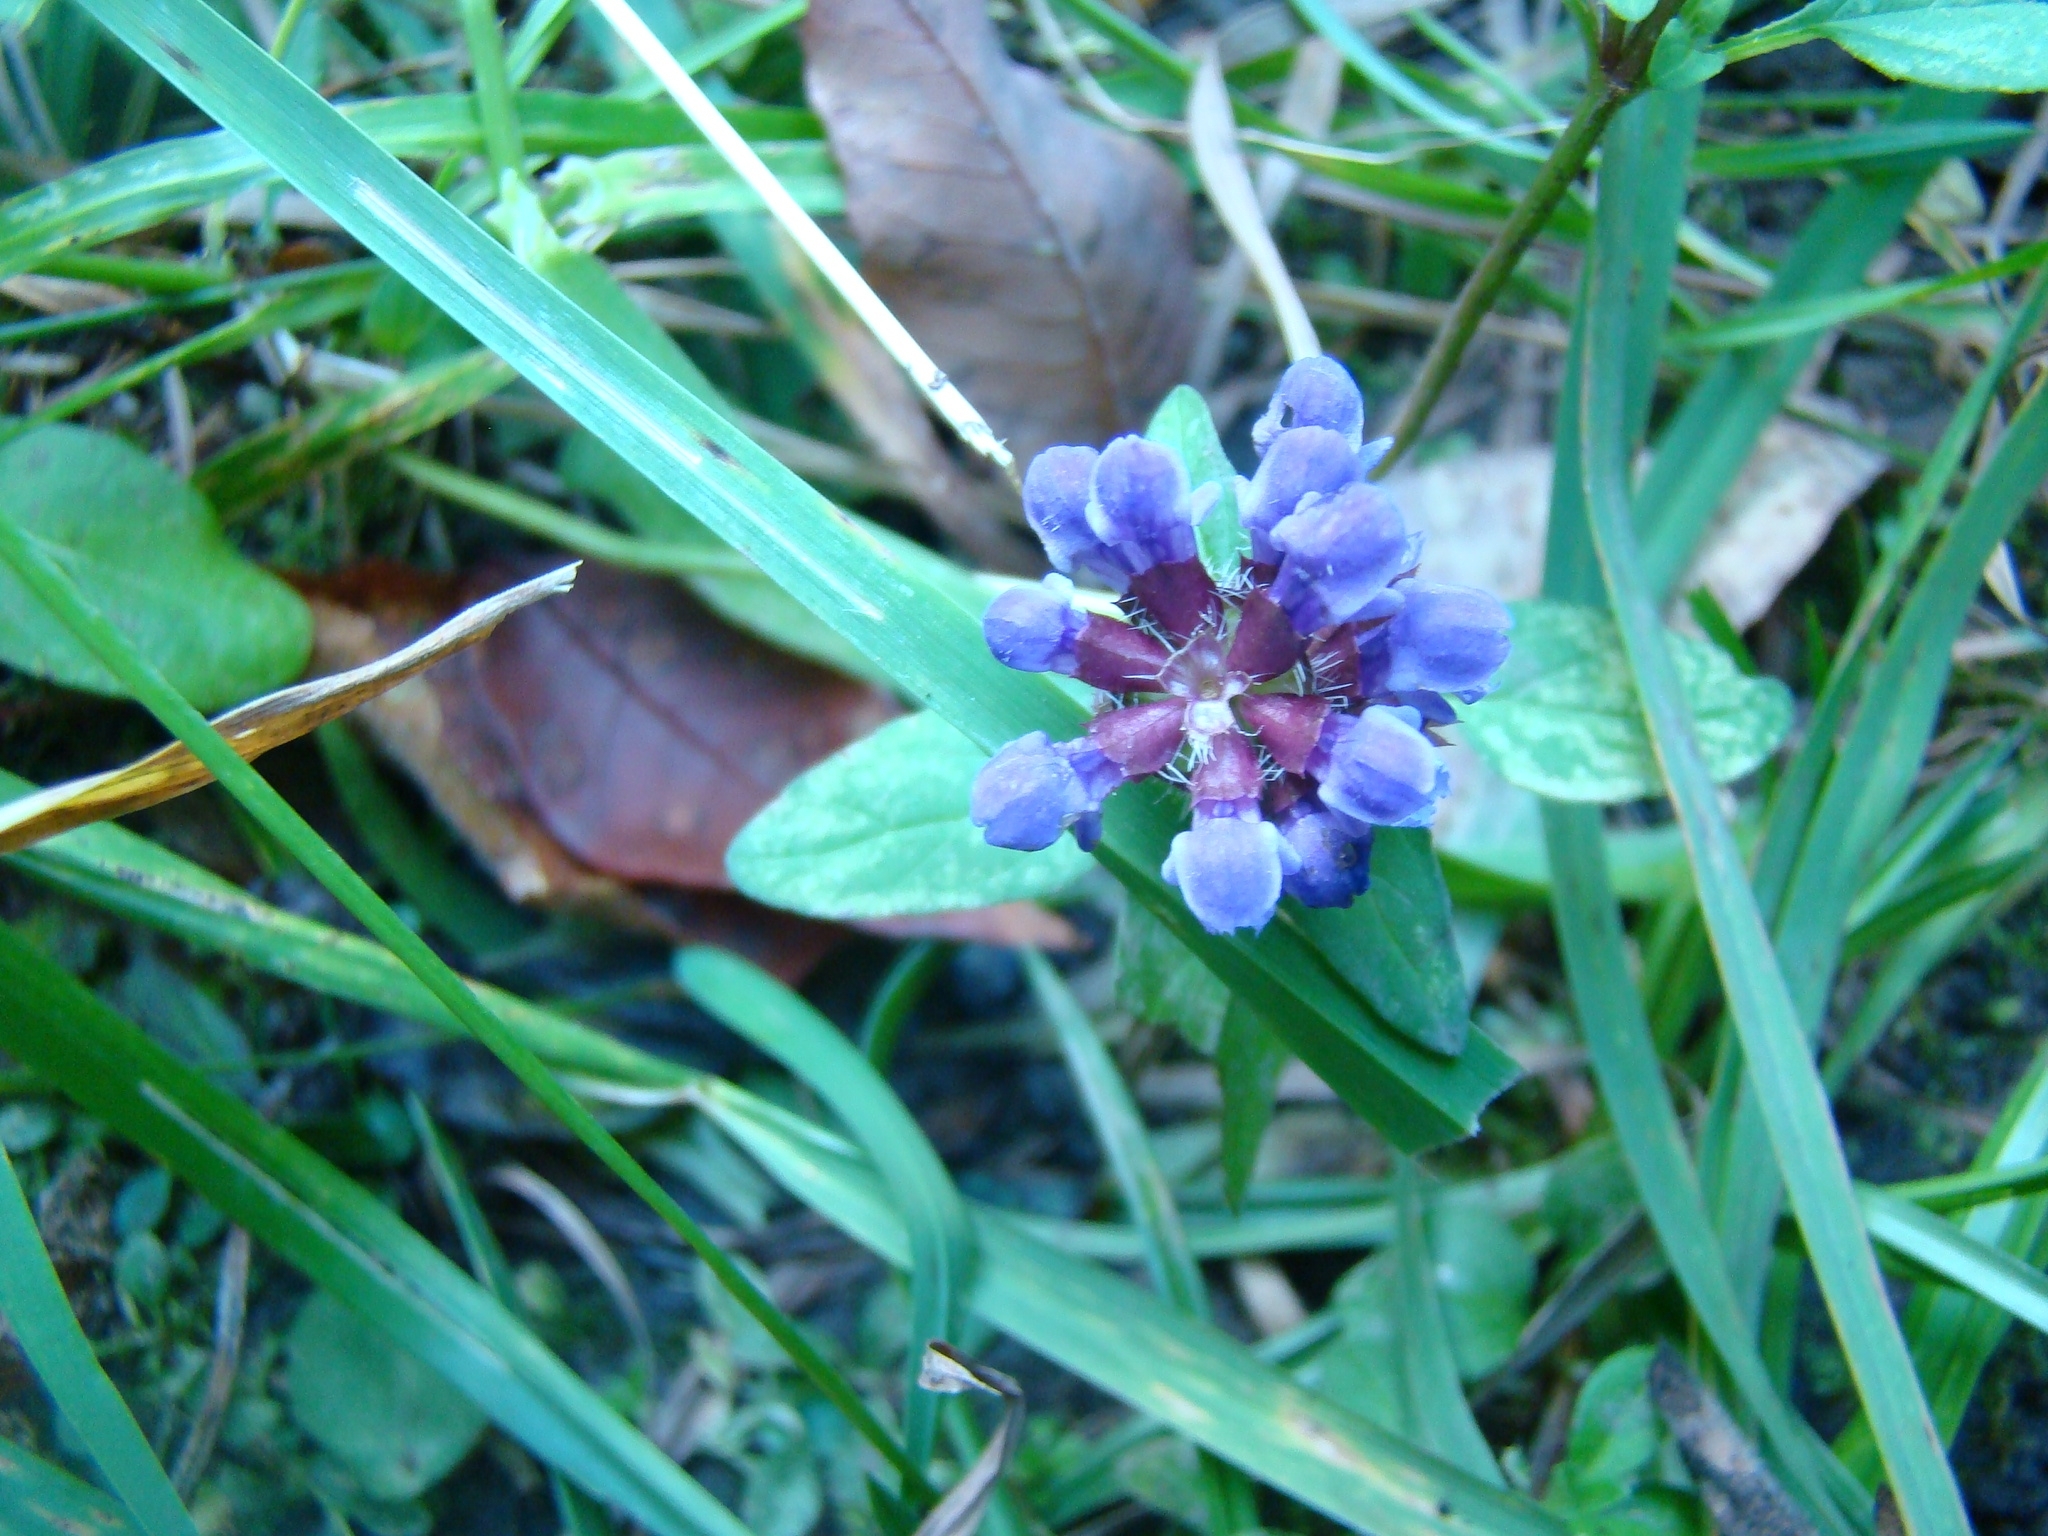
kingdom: Plantae
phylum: Tracheophyta
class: Magnoliopsida
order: Lamiales
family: Lamiaceae
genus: Prunella
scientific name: Prunella vulgaris
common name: Heal-all
